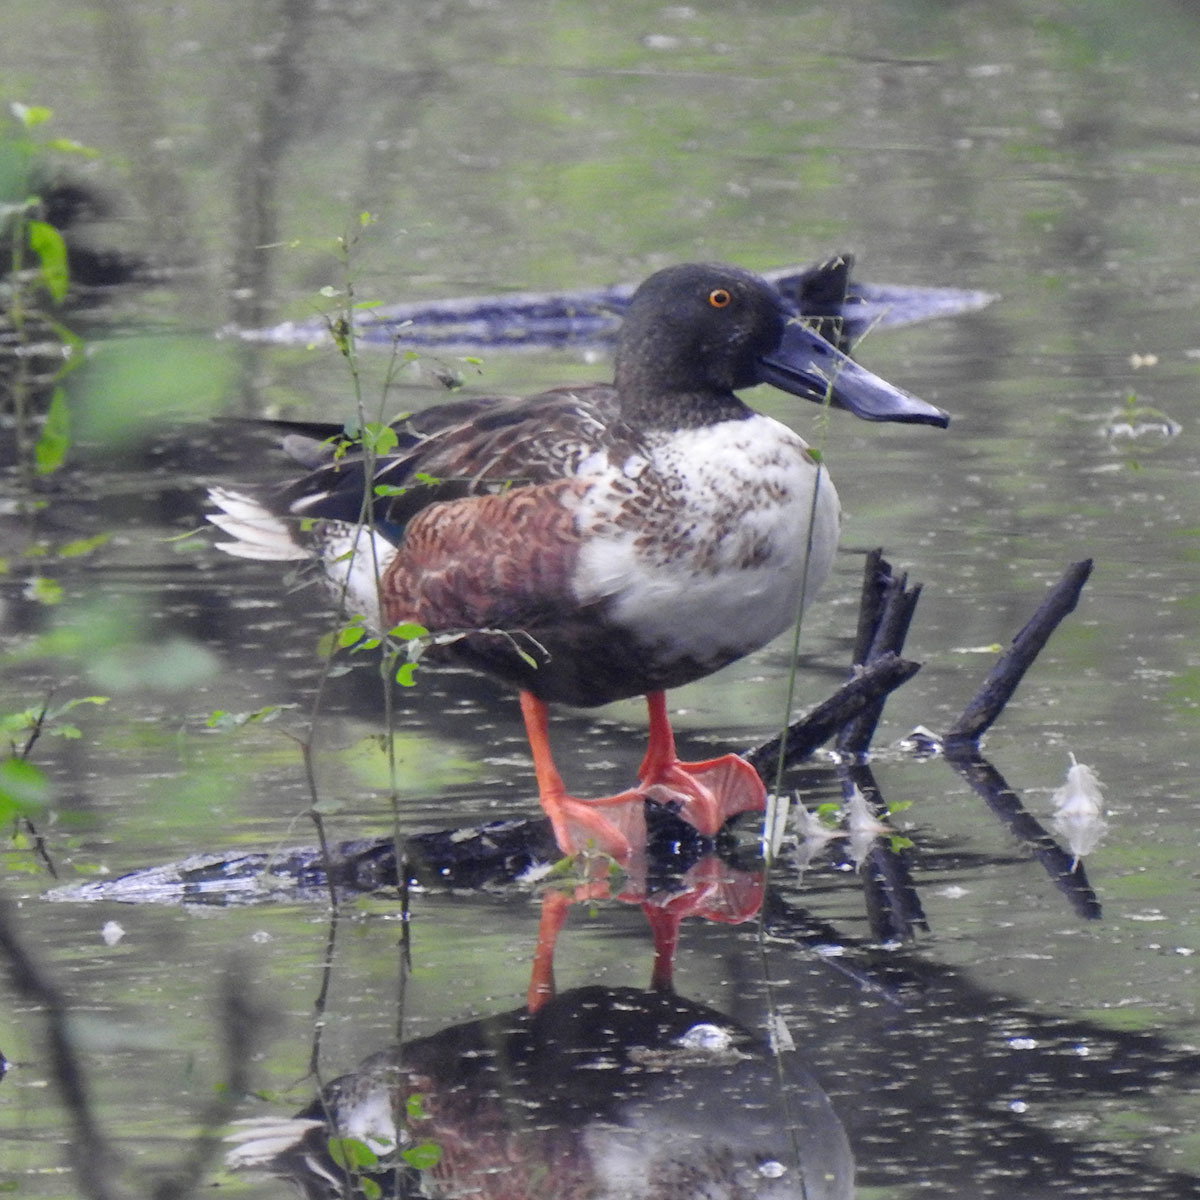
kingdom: Animalia
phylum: Chordata
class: Aves
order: Anseriformes
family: Anatidae
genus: Spatula
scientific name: Spatula clypeata
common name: Northern shoveler
